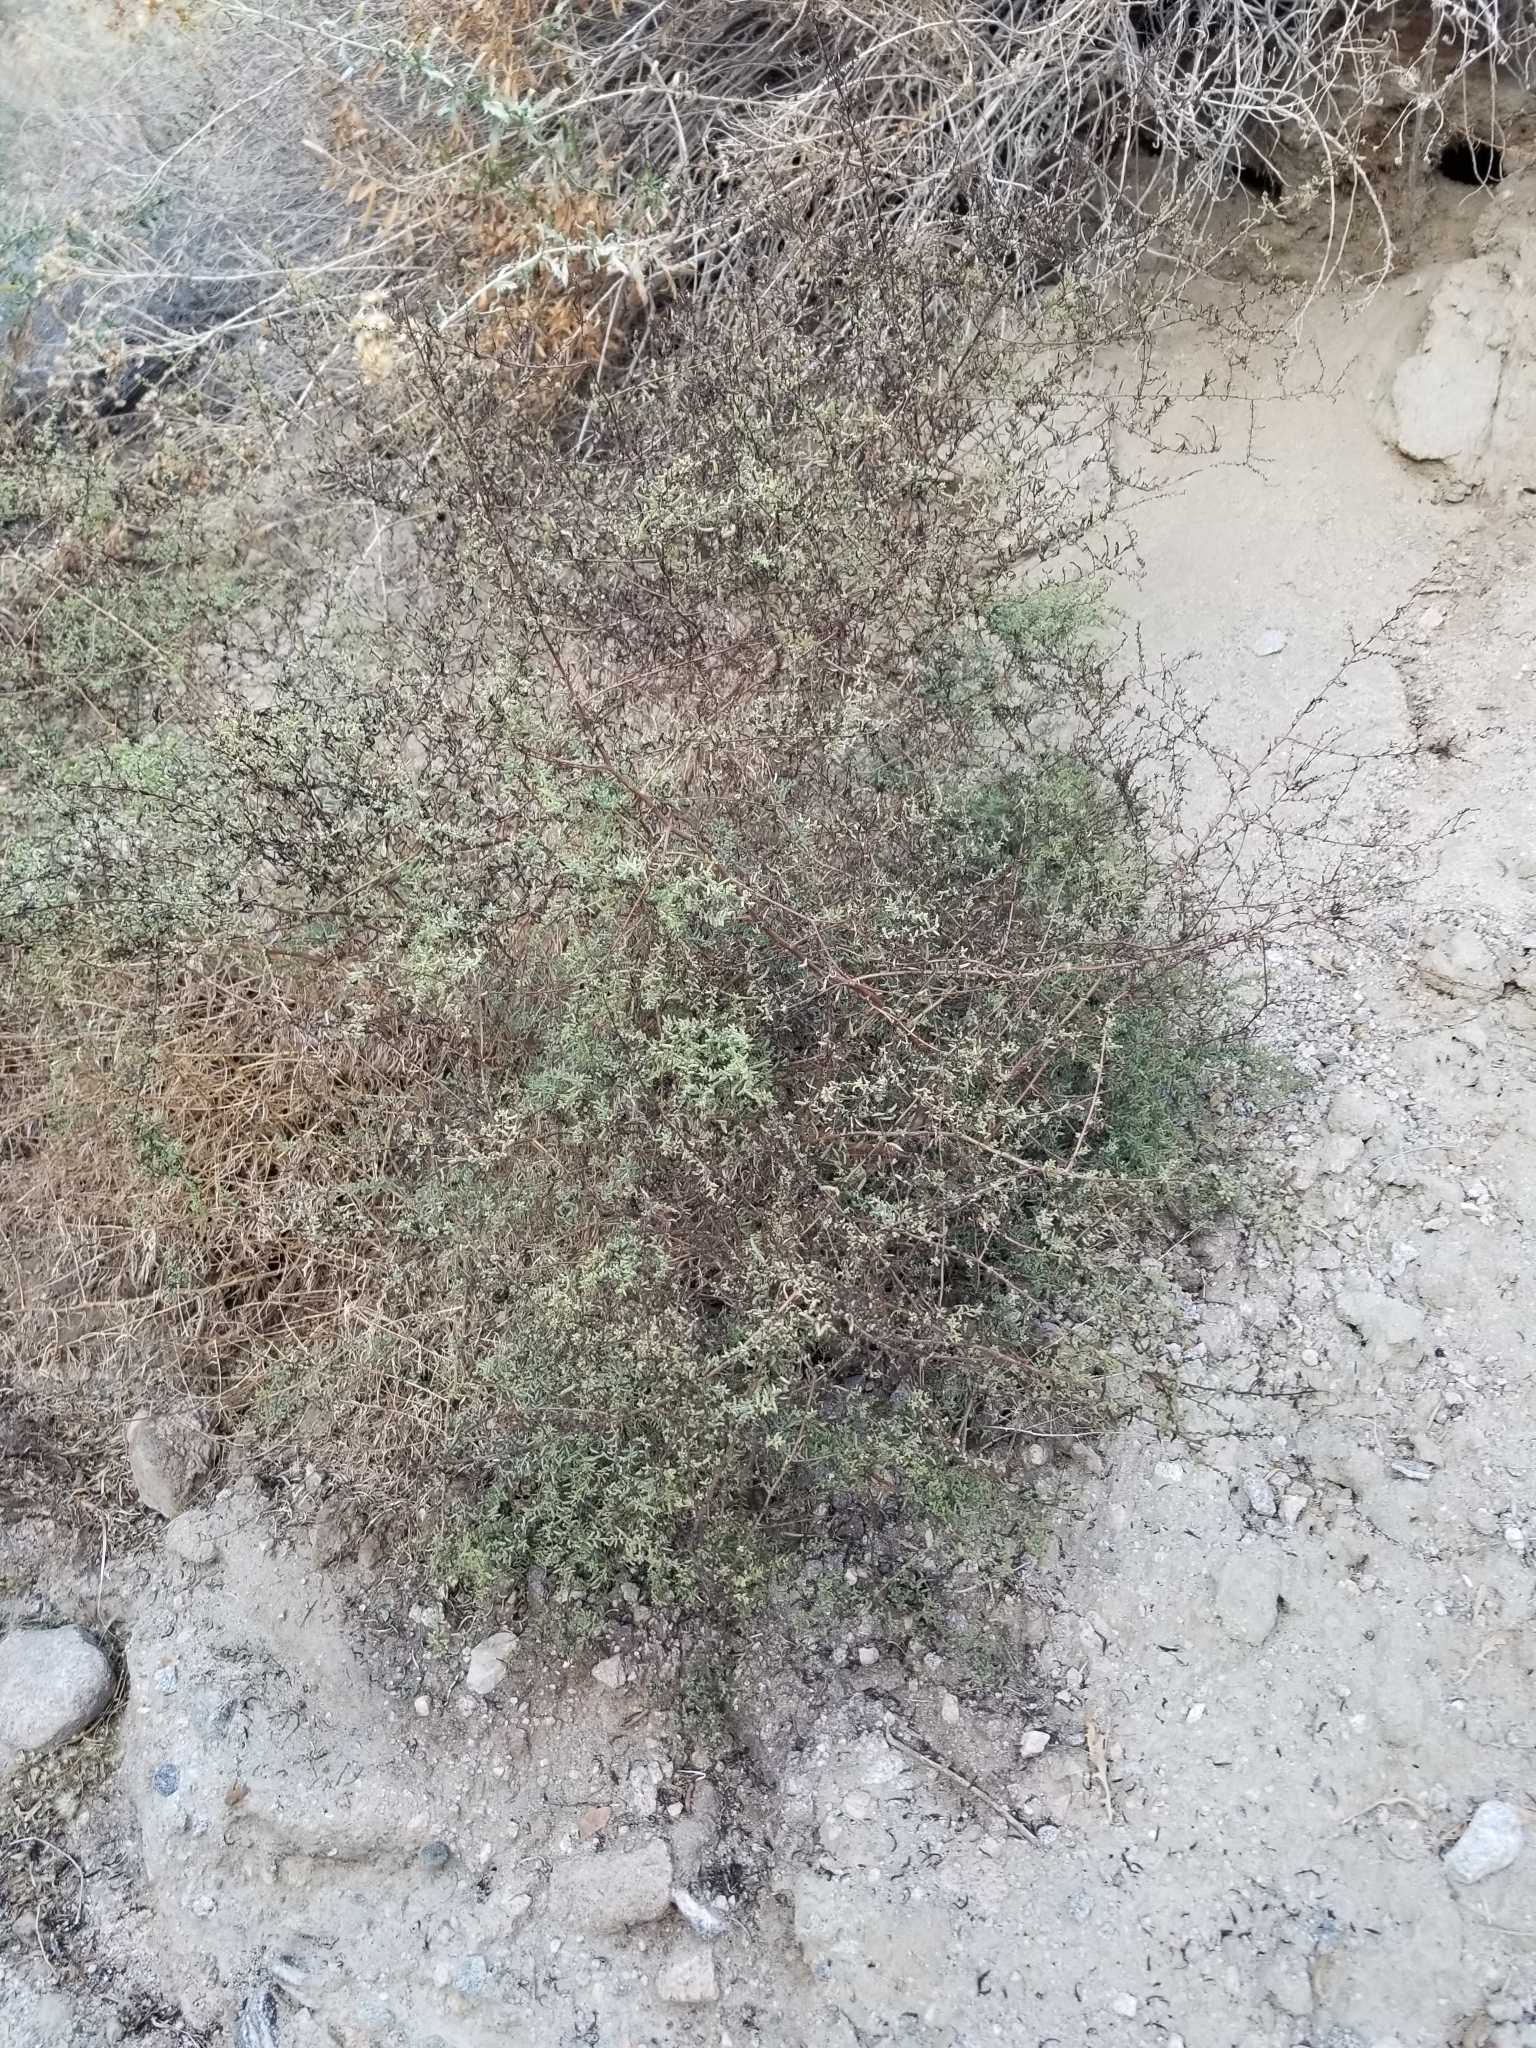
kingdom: Plantae
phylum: Tracheophyta
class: Magnoliopsida
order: Caryophyllales
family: Amaranthaceae
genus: Suaeda
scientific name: Suaeda nigra
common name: Bush seepweed
